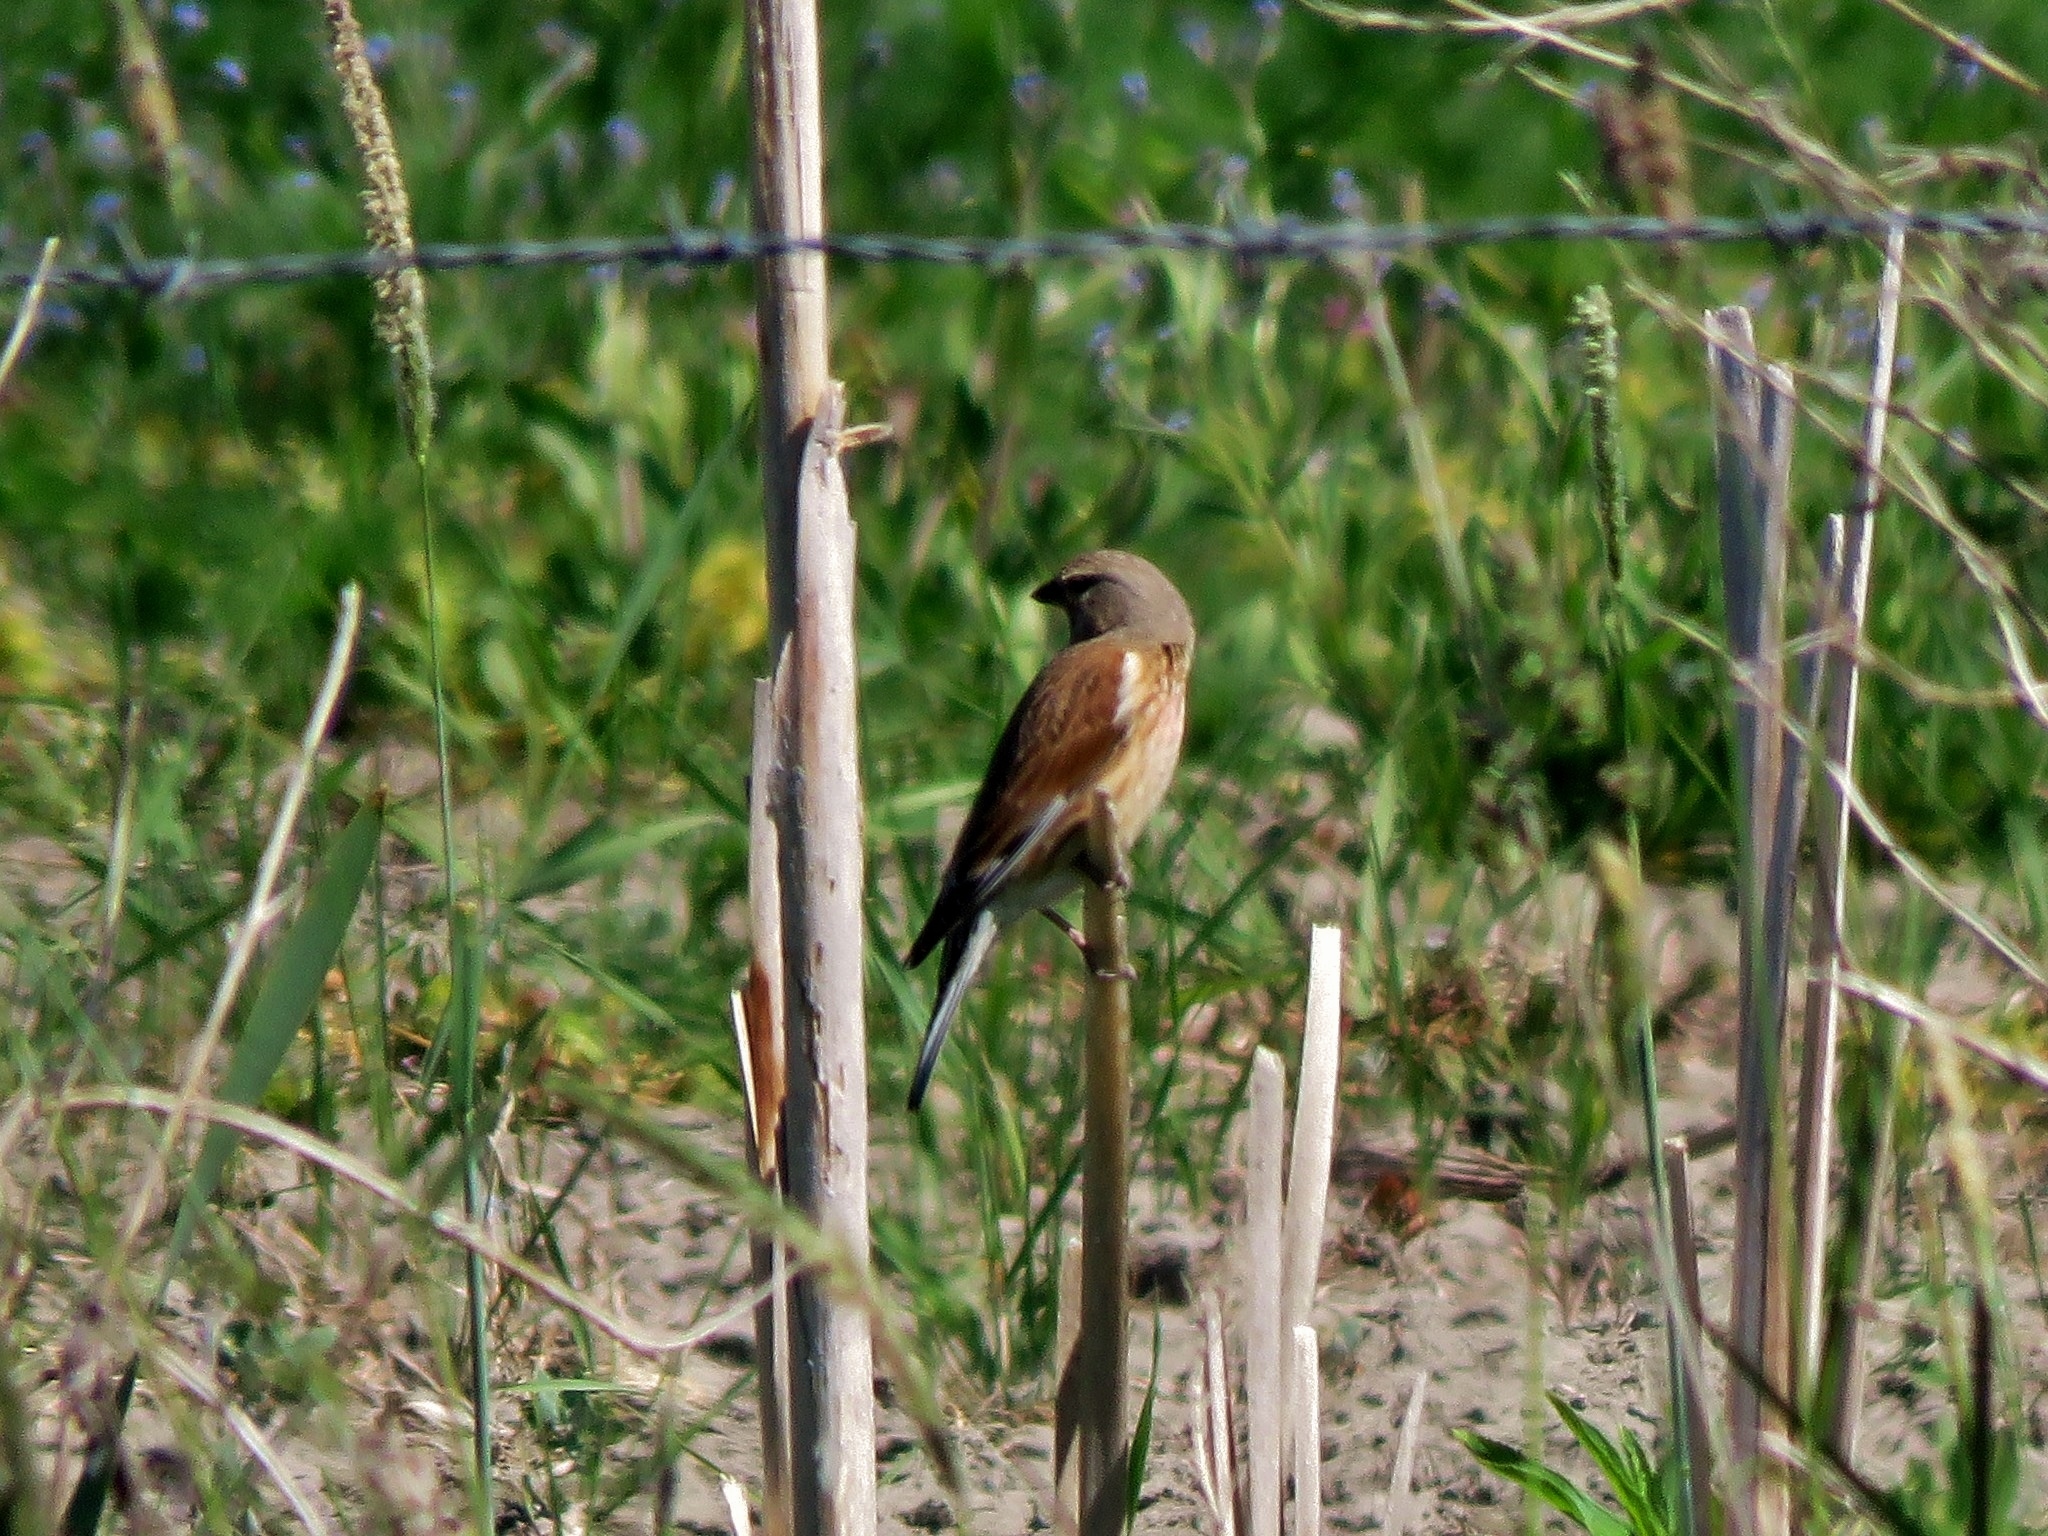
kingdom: Animalia
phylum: Chordata
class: Aves
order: Passeriformes
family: Fringillidae
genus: Linaria
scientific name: Linaria cannabina
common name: Common linnet
